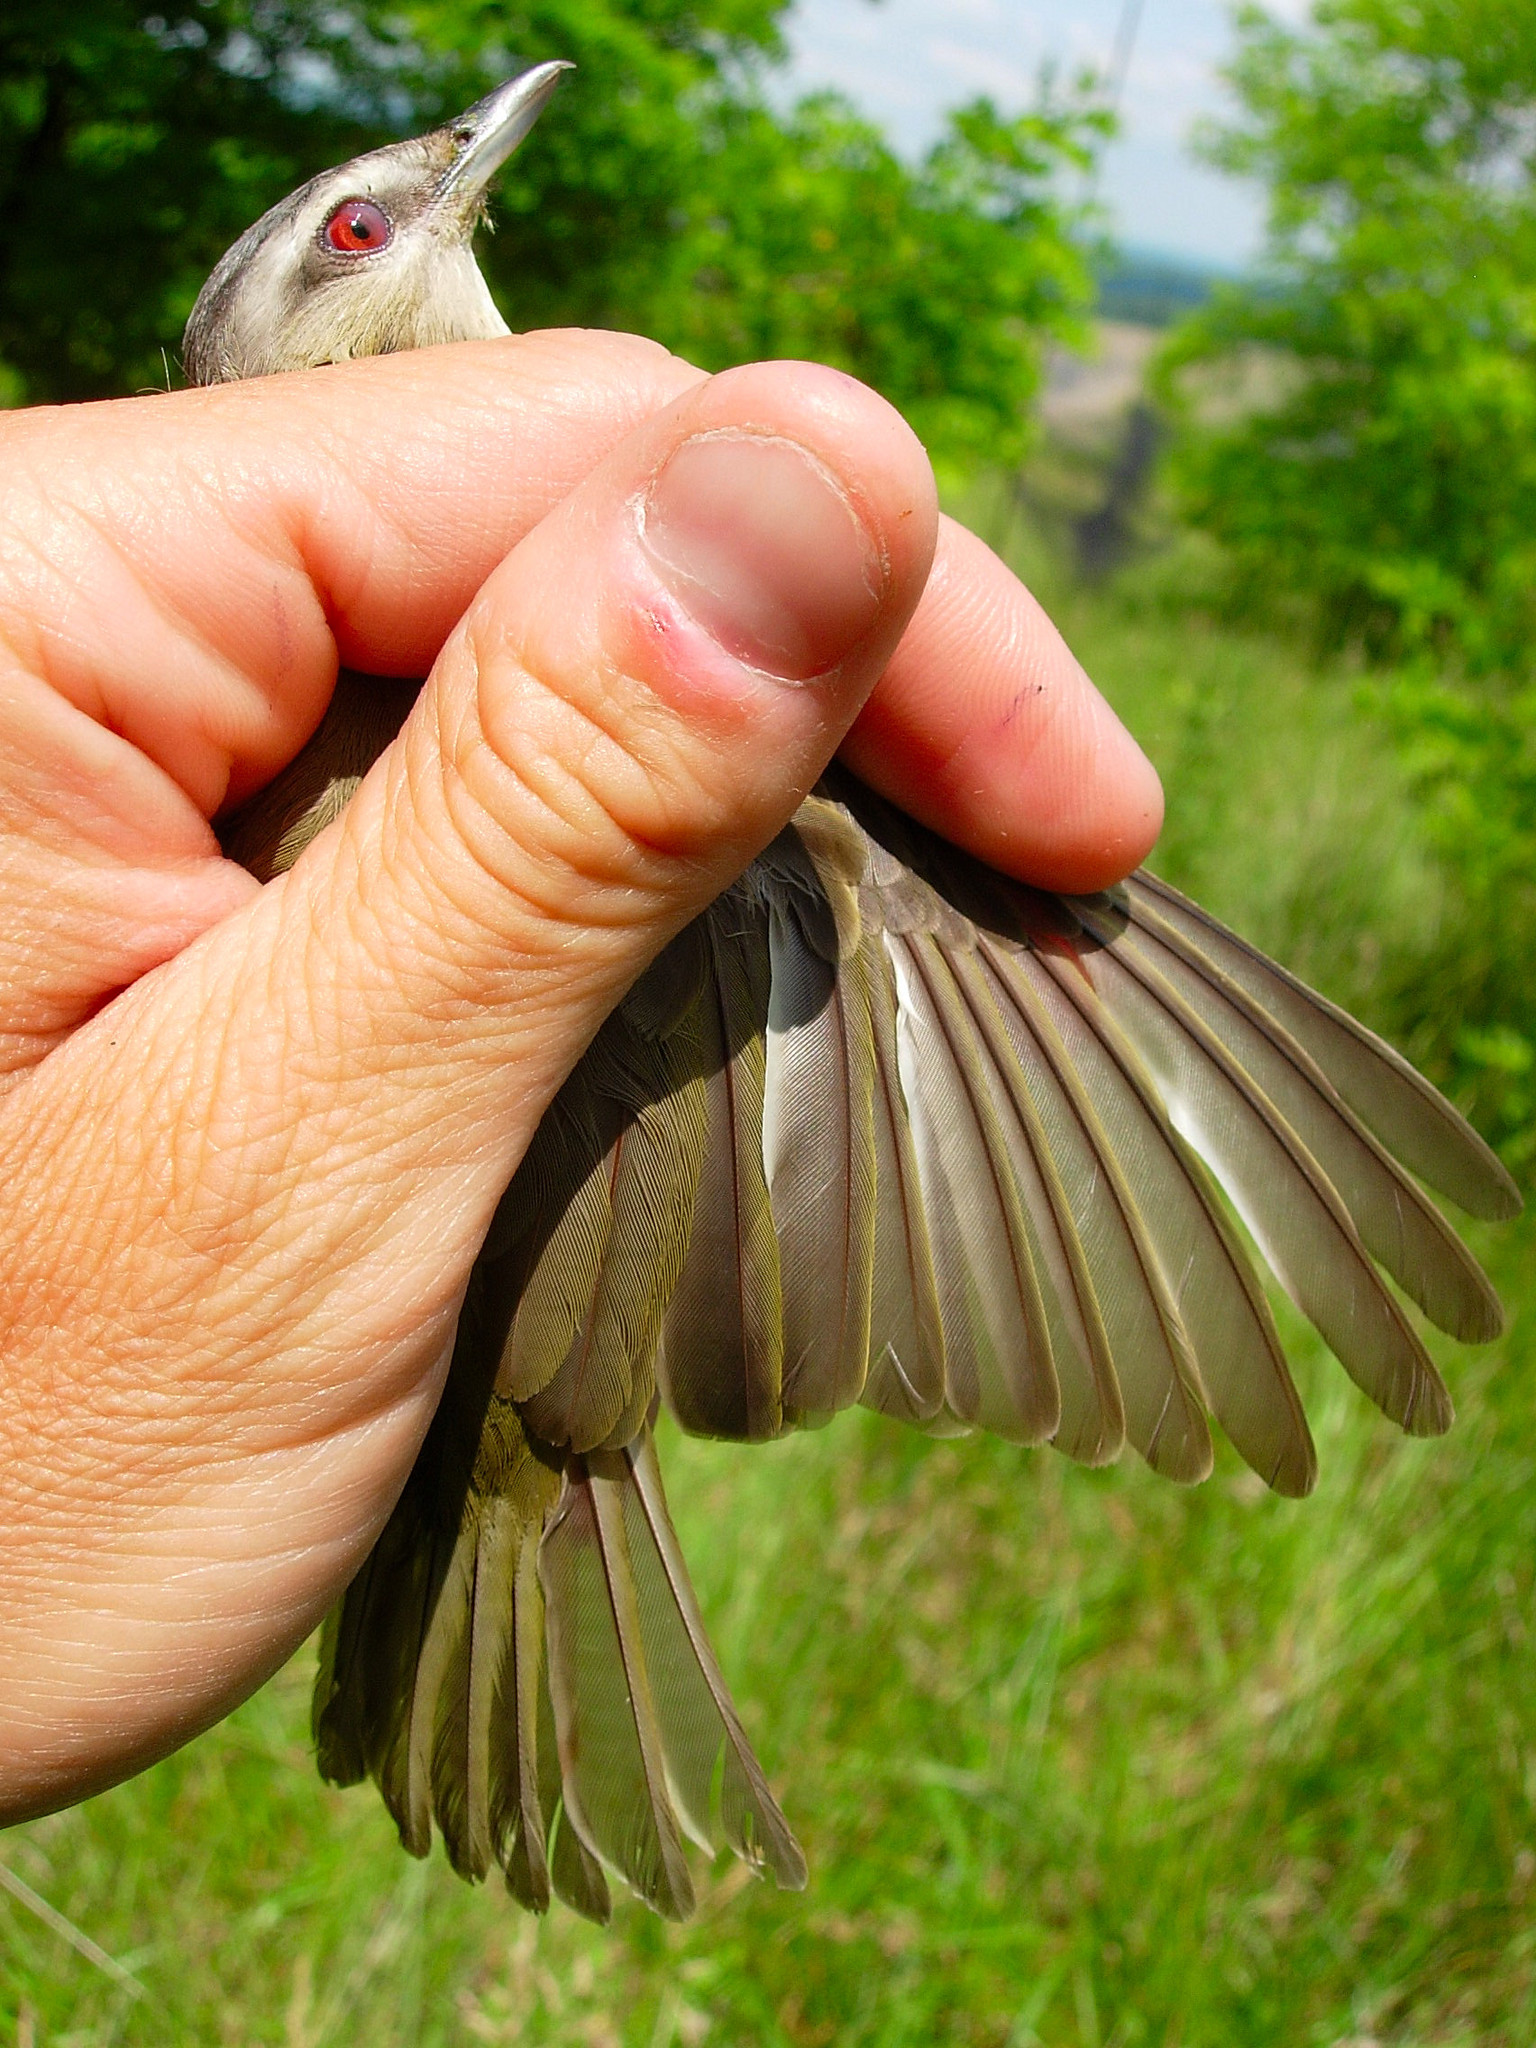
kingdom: Animalia
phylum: Chordata
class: Aves
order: Passeriformes
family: Vireonidae
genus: Vireo
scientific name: Vireo olivaceus
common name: Red-eyed vireo
